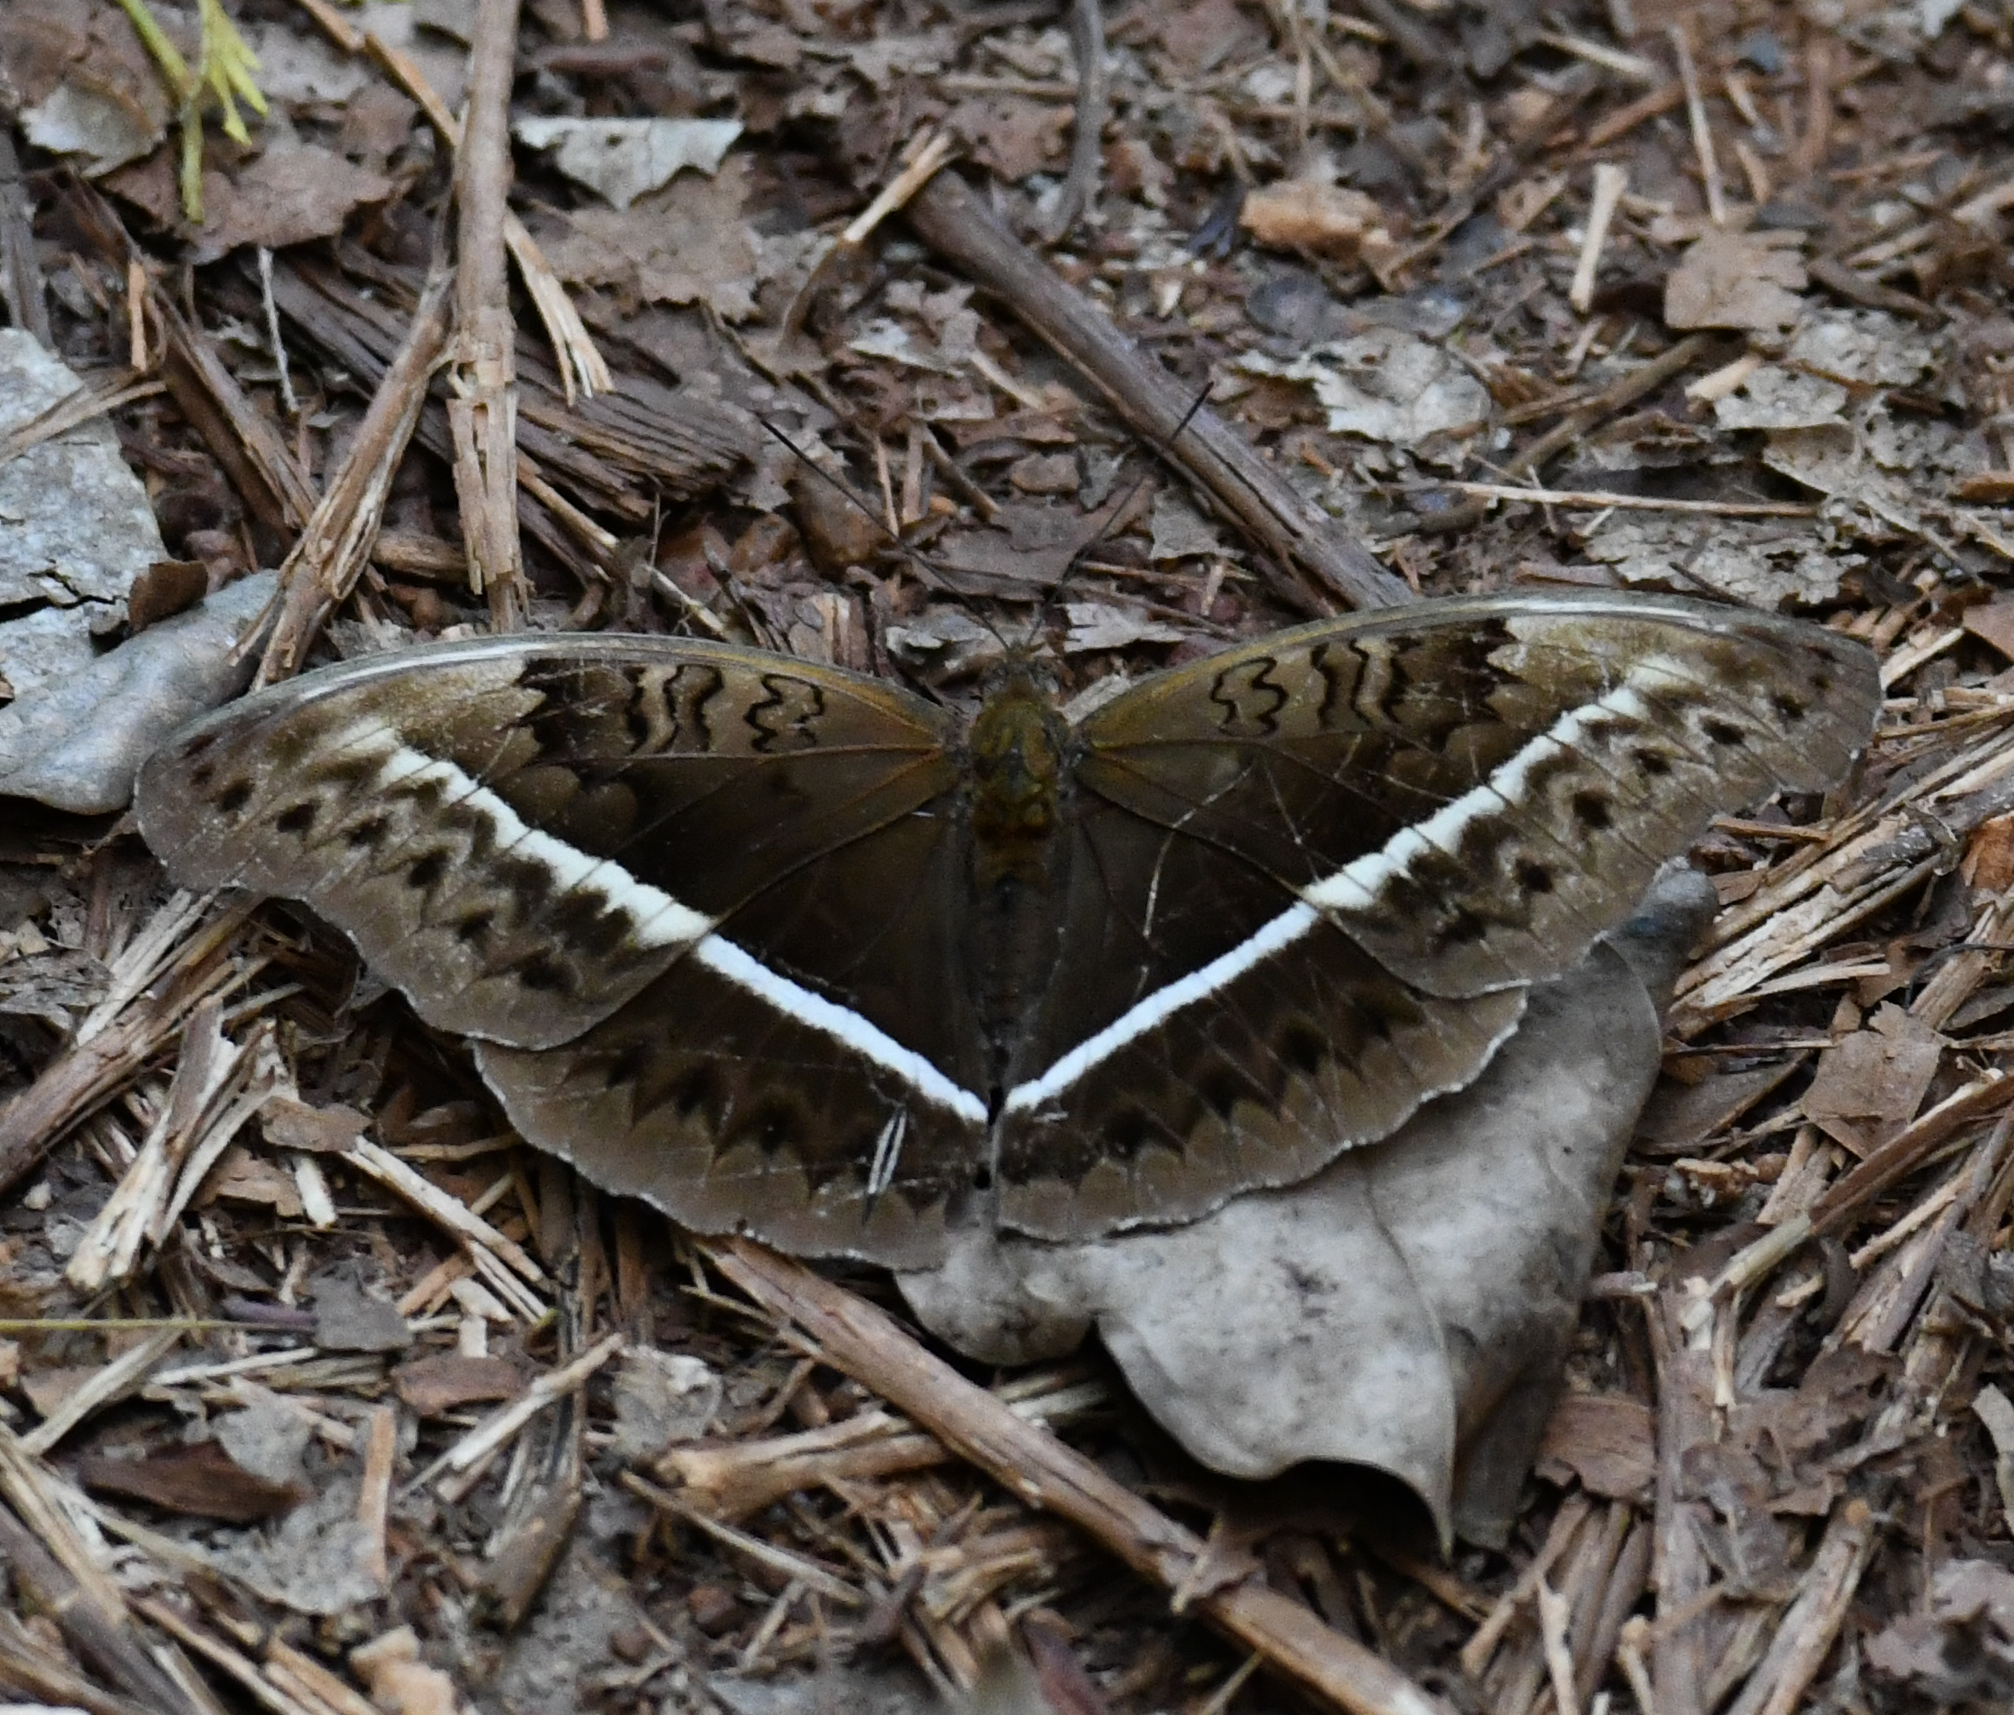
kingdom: Animalia
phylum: Arthropoda
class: Insecta
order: Lepidoptera
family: Nymphalidae
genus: Cymothoe
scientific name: Cymothoe egesta
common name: Common yellow glider
